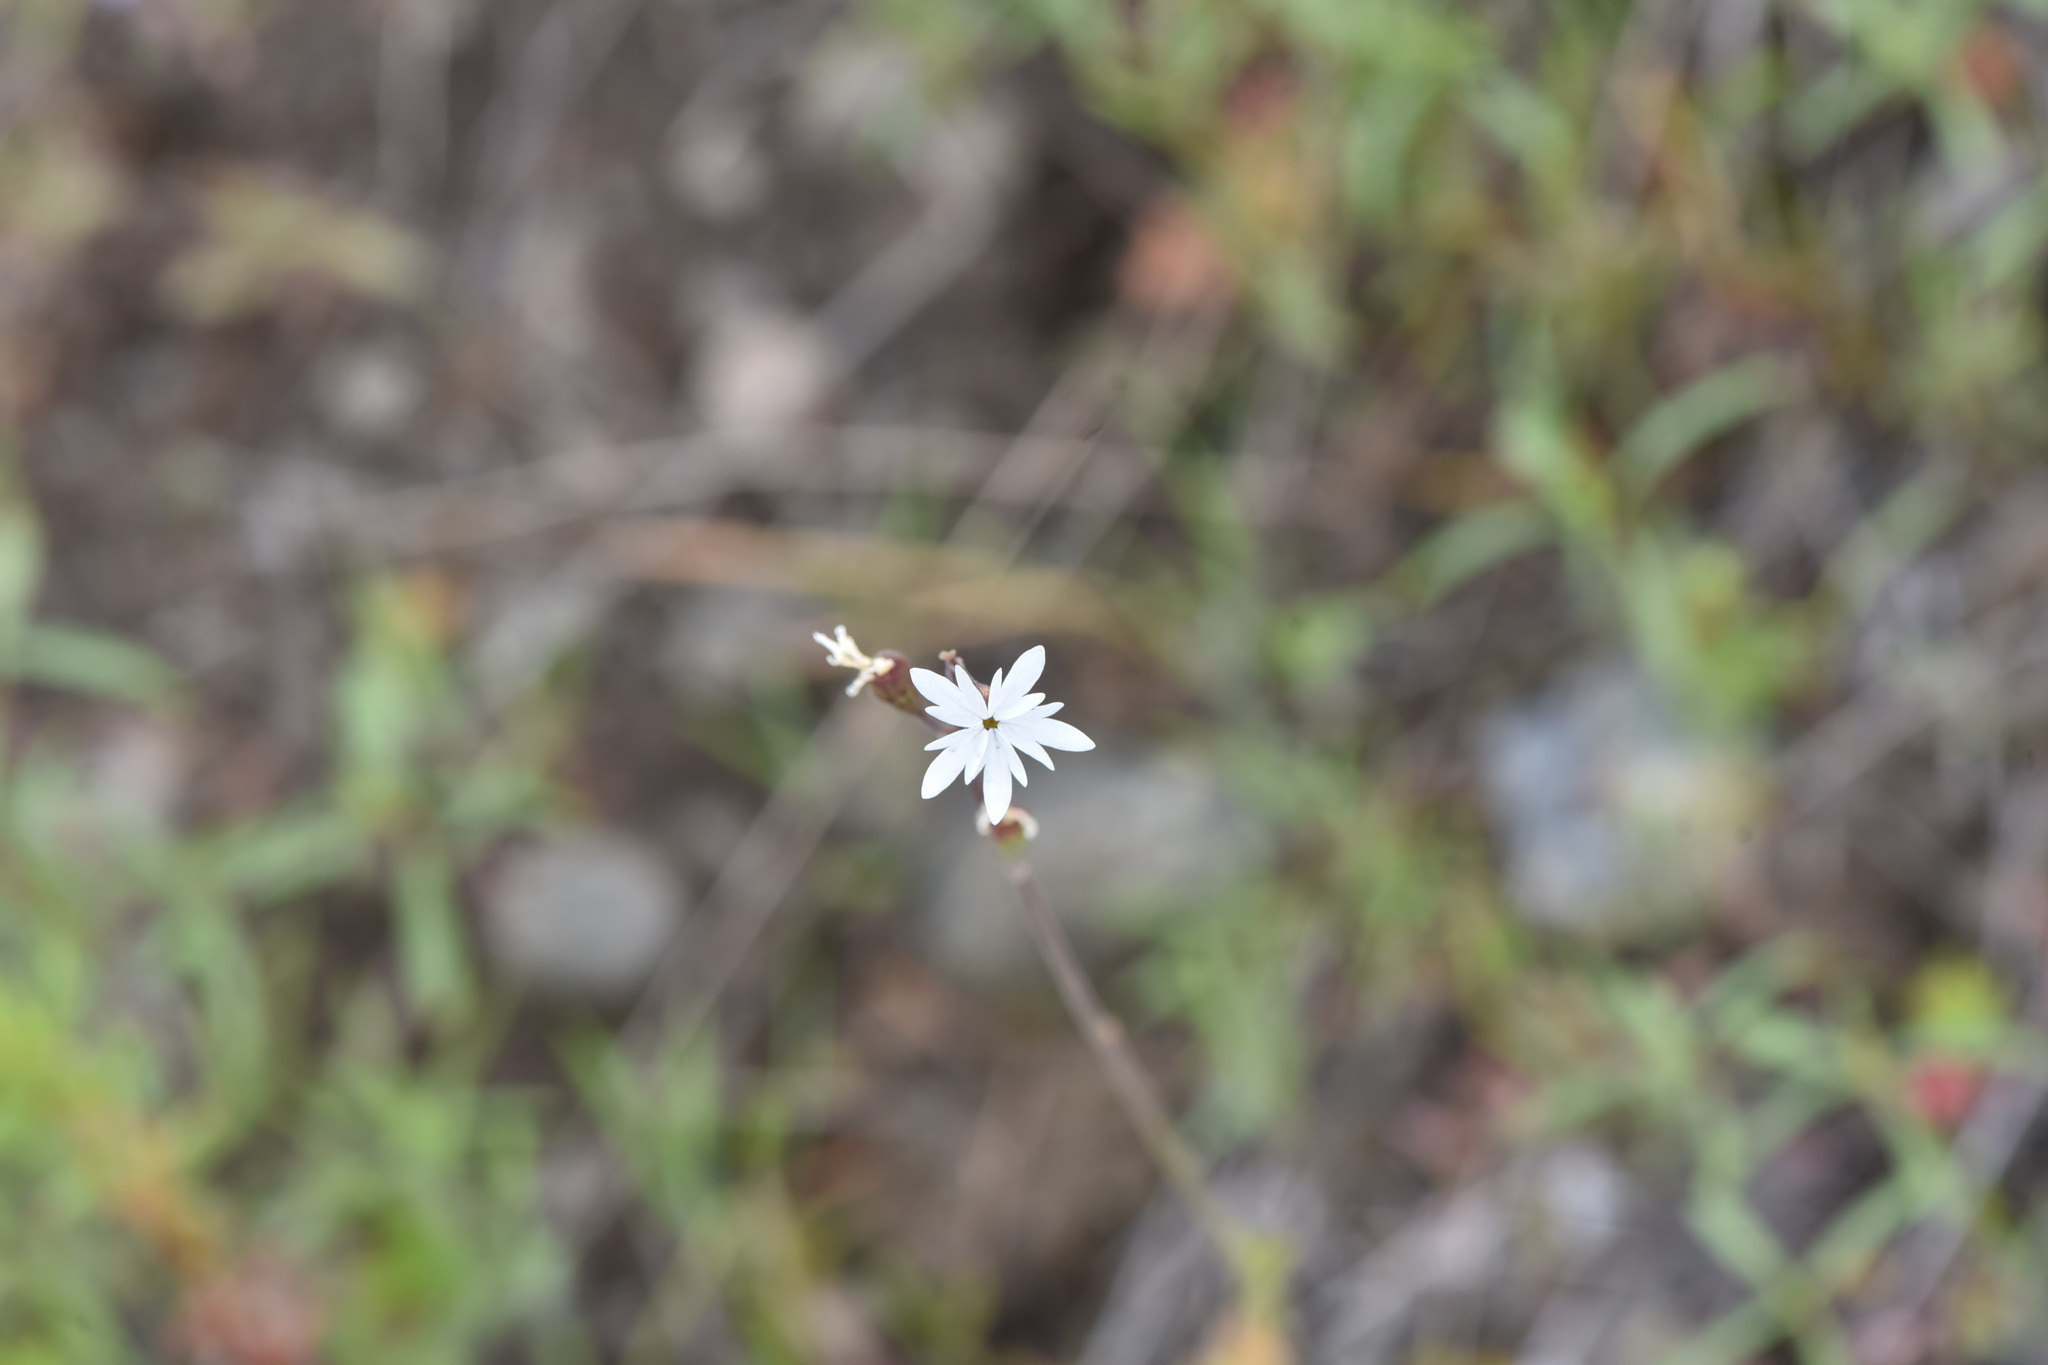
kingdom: Plantae
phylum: Tracheophyta
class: Magnoliopsida
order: Saxifragales
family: Saxifragaceae
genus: Lithophragma
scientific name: Lithophragma parviflorum
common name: Small-flowered fringe-cup
